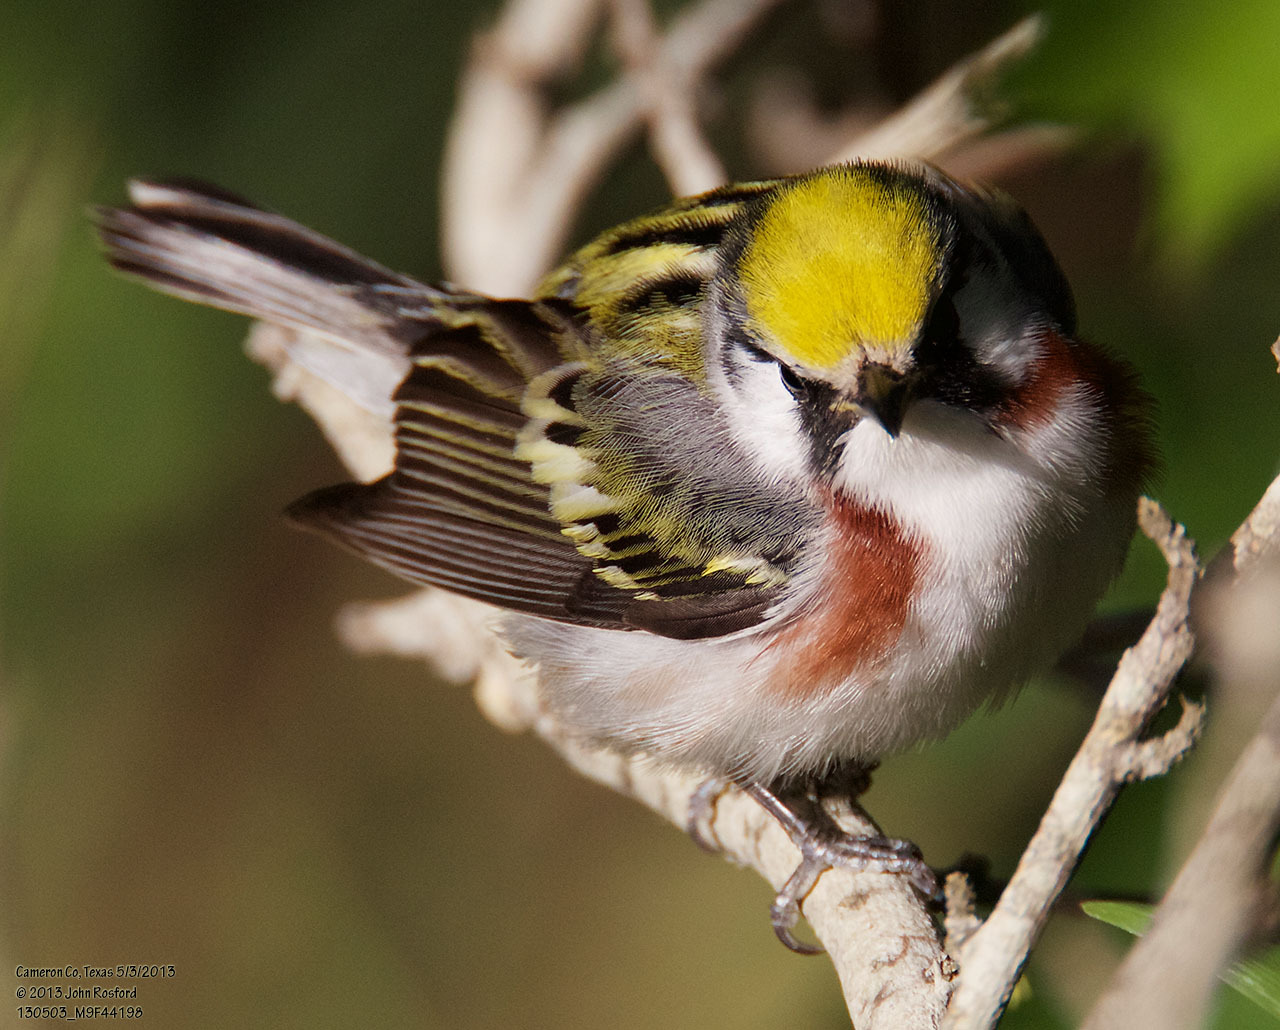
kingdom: Animalia
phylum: Chordata
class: Aves
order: Passeriformes
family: Parulidae
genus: Setophaga
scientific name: Setophaga pensylvanica
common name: Chestnut-sided warbler
